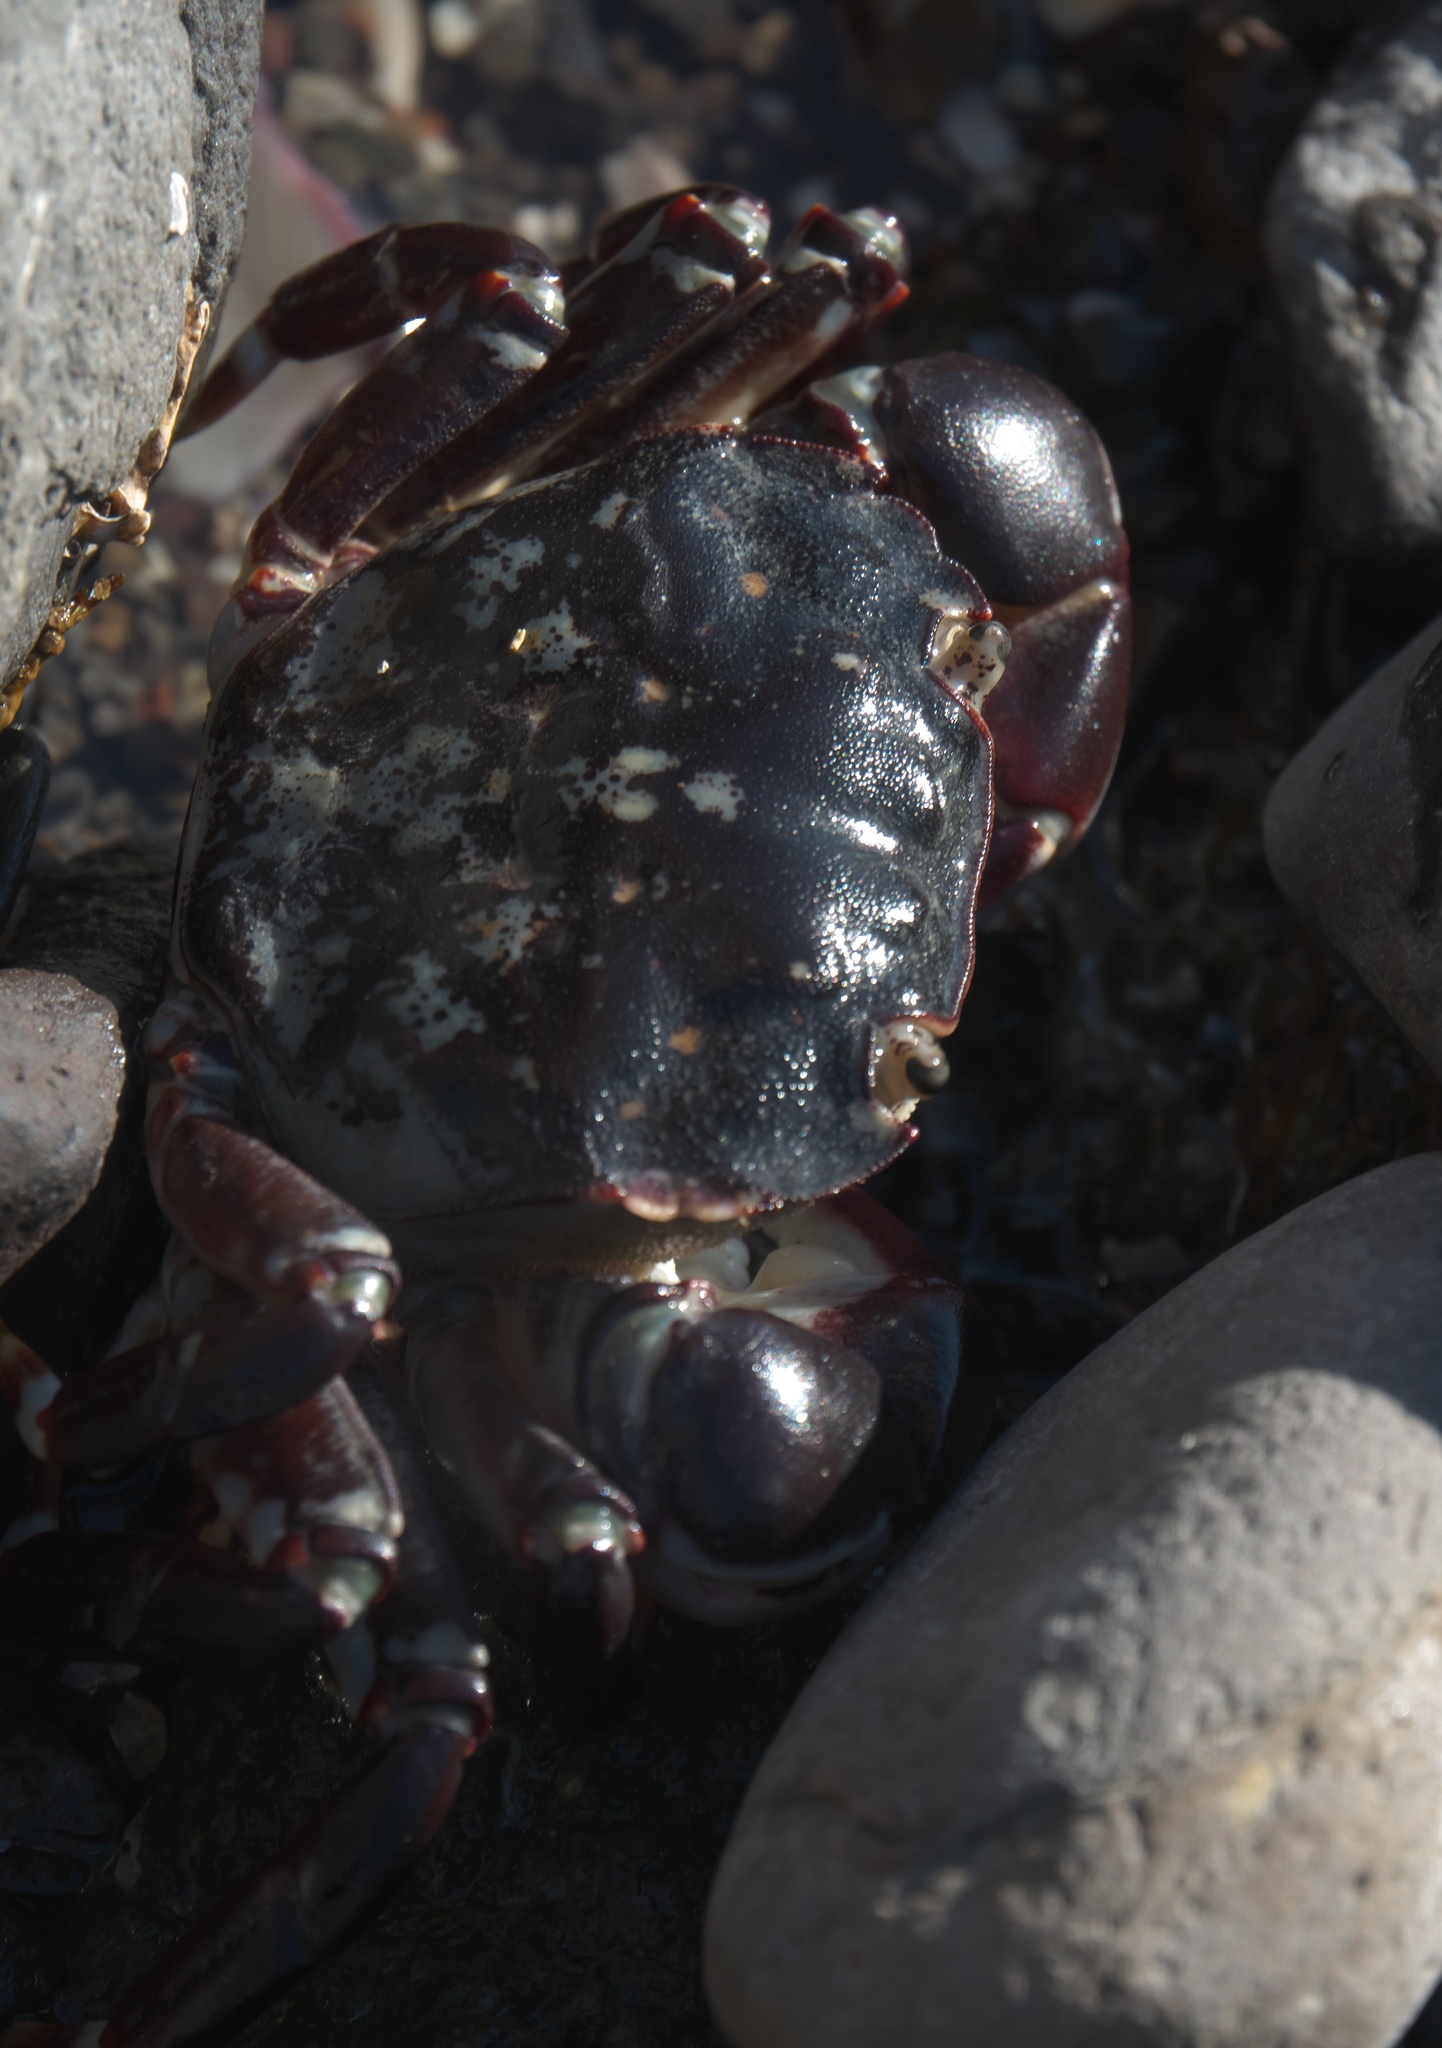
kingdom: Animalia
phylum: Arthropoda
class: Malacostraca
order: Decapoda
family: Varunidae
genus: Hemigrapsus
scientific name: Hemigrapsus sexdentatus
